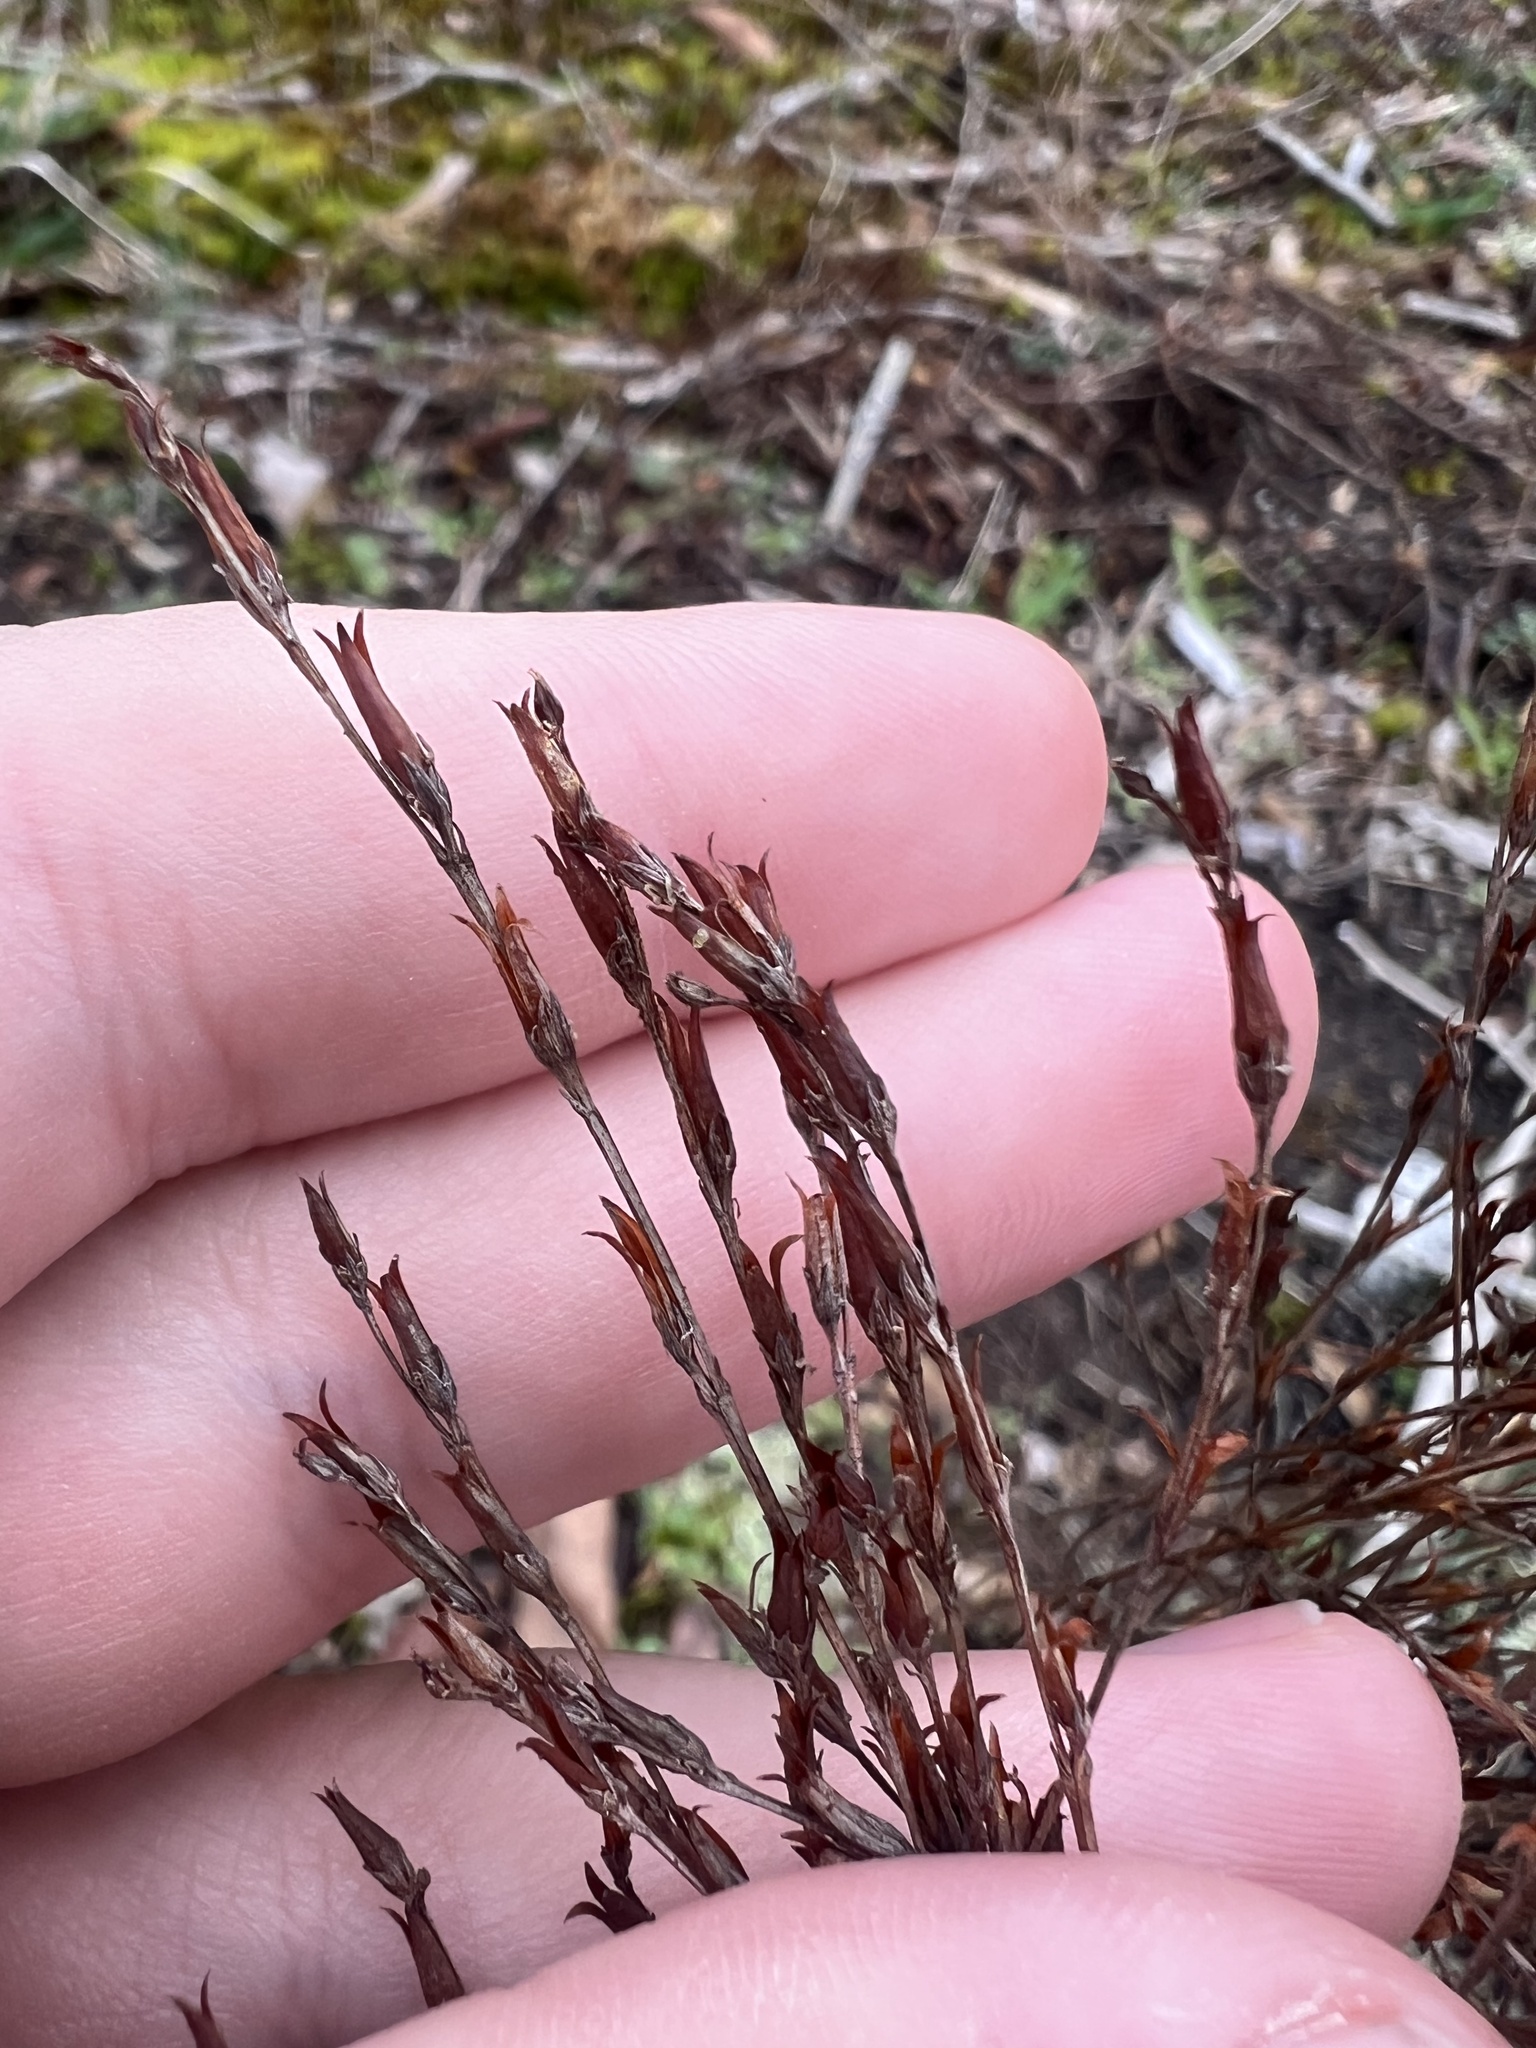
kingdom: Plantae
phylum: Tracheophyta
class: Magnoliopsida
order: Malpighiales
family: Hypericaceae
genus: Hypericum
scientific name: Hypericum drummondii
